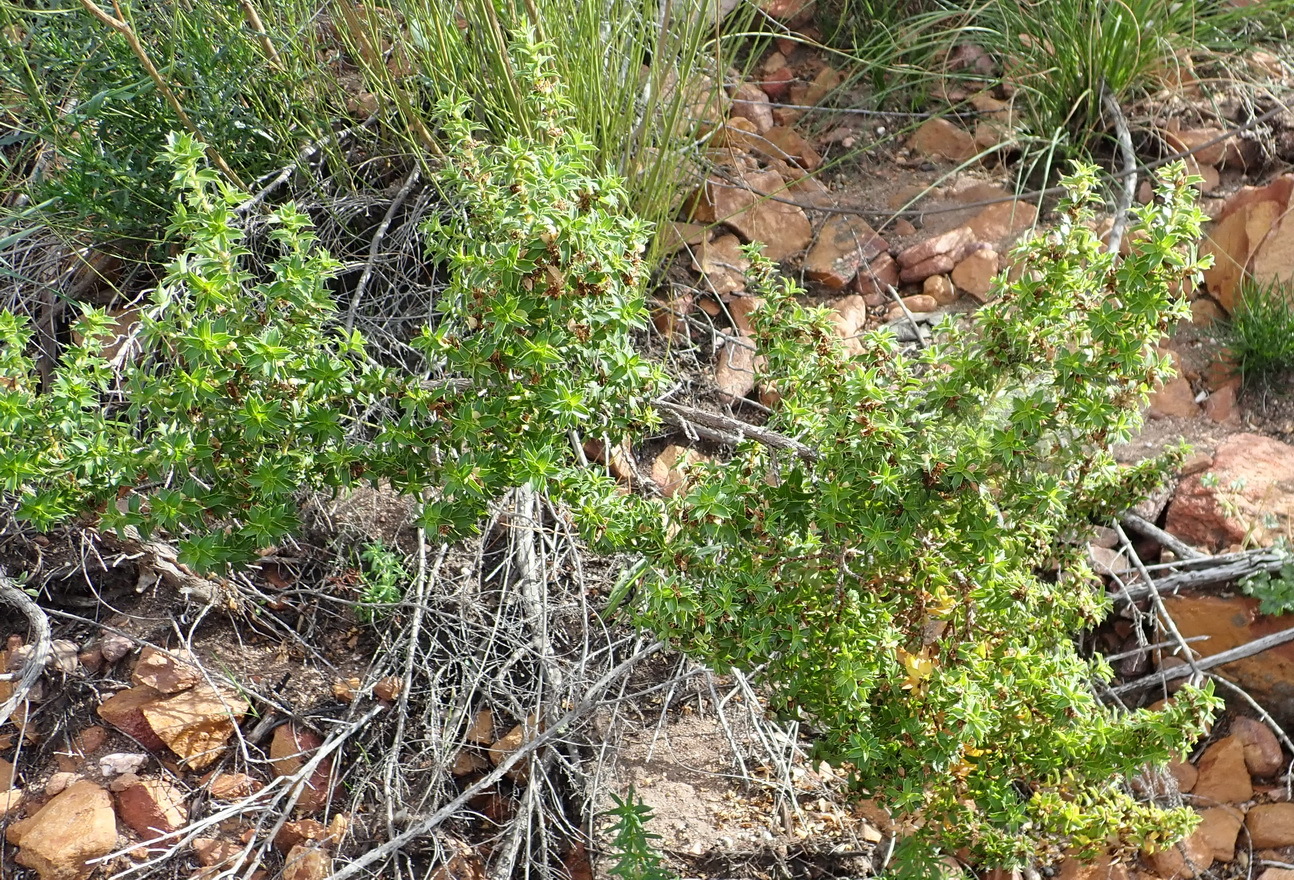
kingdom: Plantae
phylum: Tracheophyta
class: Magnoliopsida
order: Rosales
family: Rosaceae
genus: Cliffortia
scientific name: Cliffortia ilicifolia
